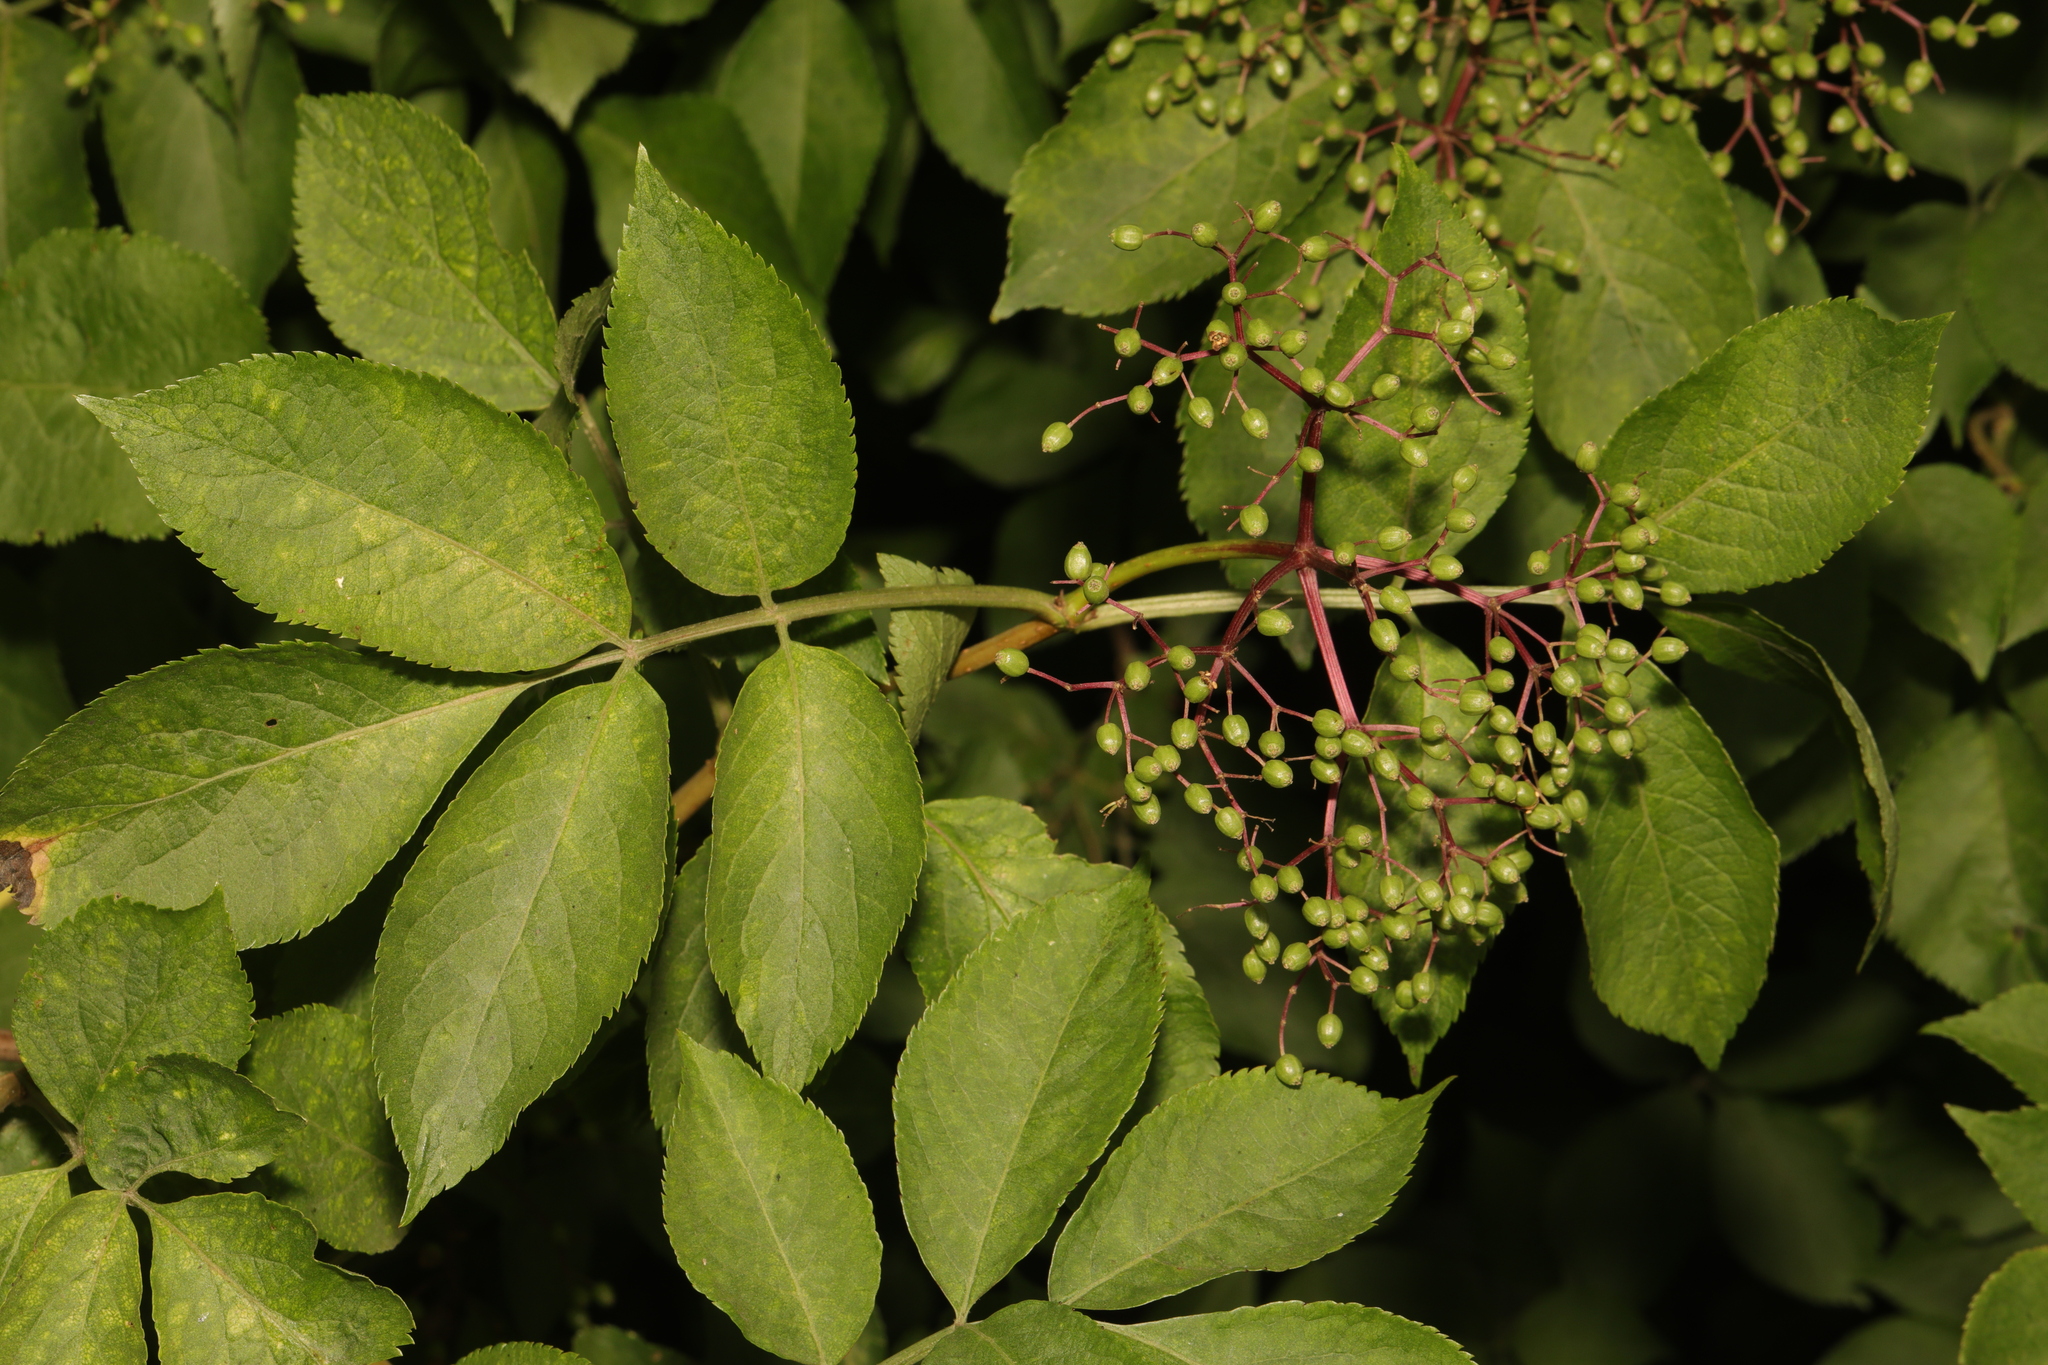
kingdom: Plantae
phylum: Tracheophyta
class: Magnoliopsida
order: Dipsacales
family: Viburnaceae
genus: Sambucus
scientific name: Sambucus nigra
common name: Elder
